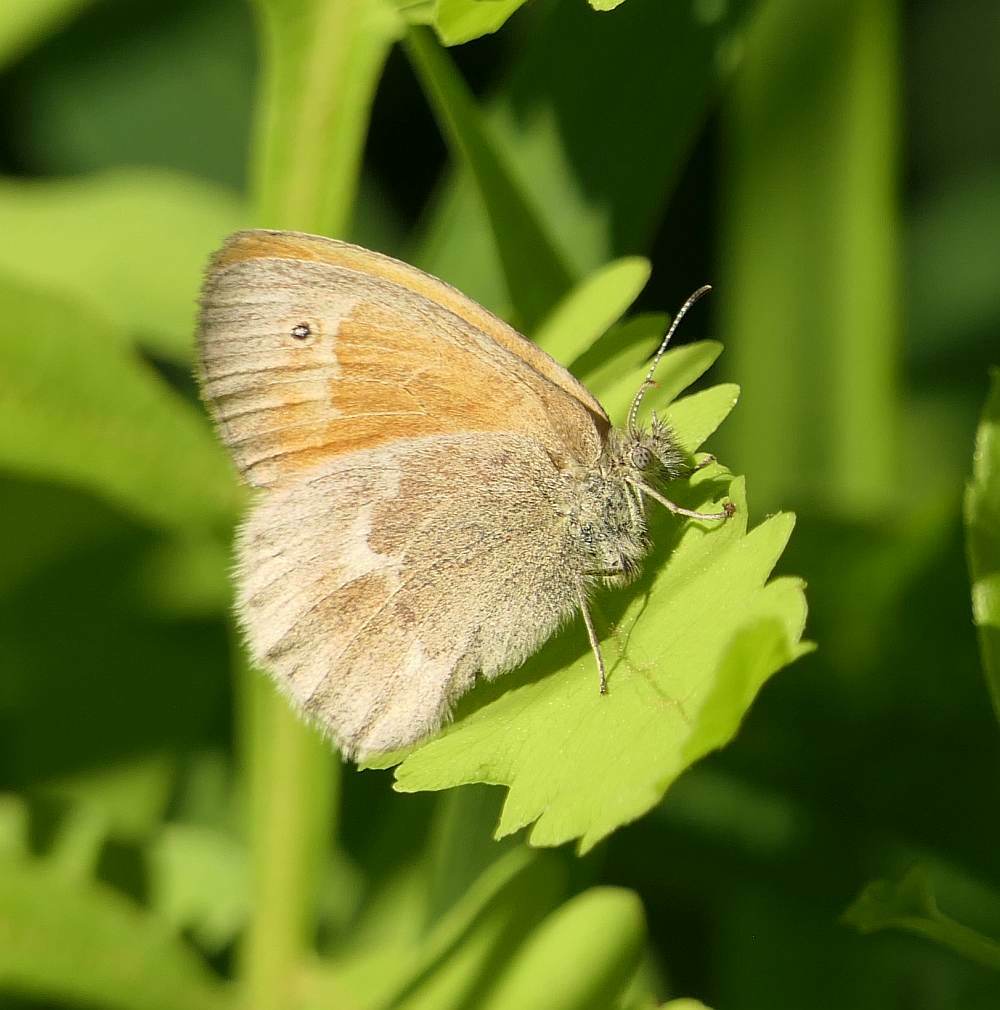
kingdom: Animalia
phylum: Arthropoda
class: Insecta
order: Lepidoptera
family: Nymphalidae
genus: Coenonympha
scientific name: Coenonympha california
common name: Common ringlet
